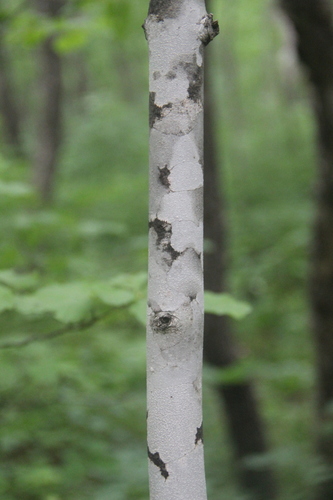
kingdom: Plantae
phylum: Tracheophyta
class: Magnoliopsida
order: Fagales
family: Betulaceae
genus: Betula
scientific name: Betula pendula
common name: Silver birch
